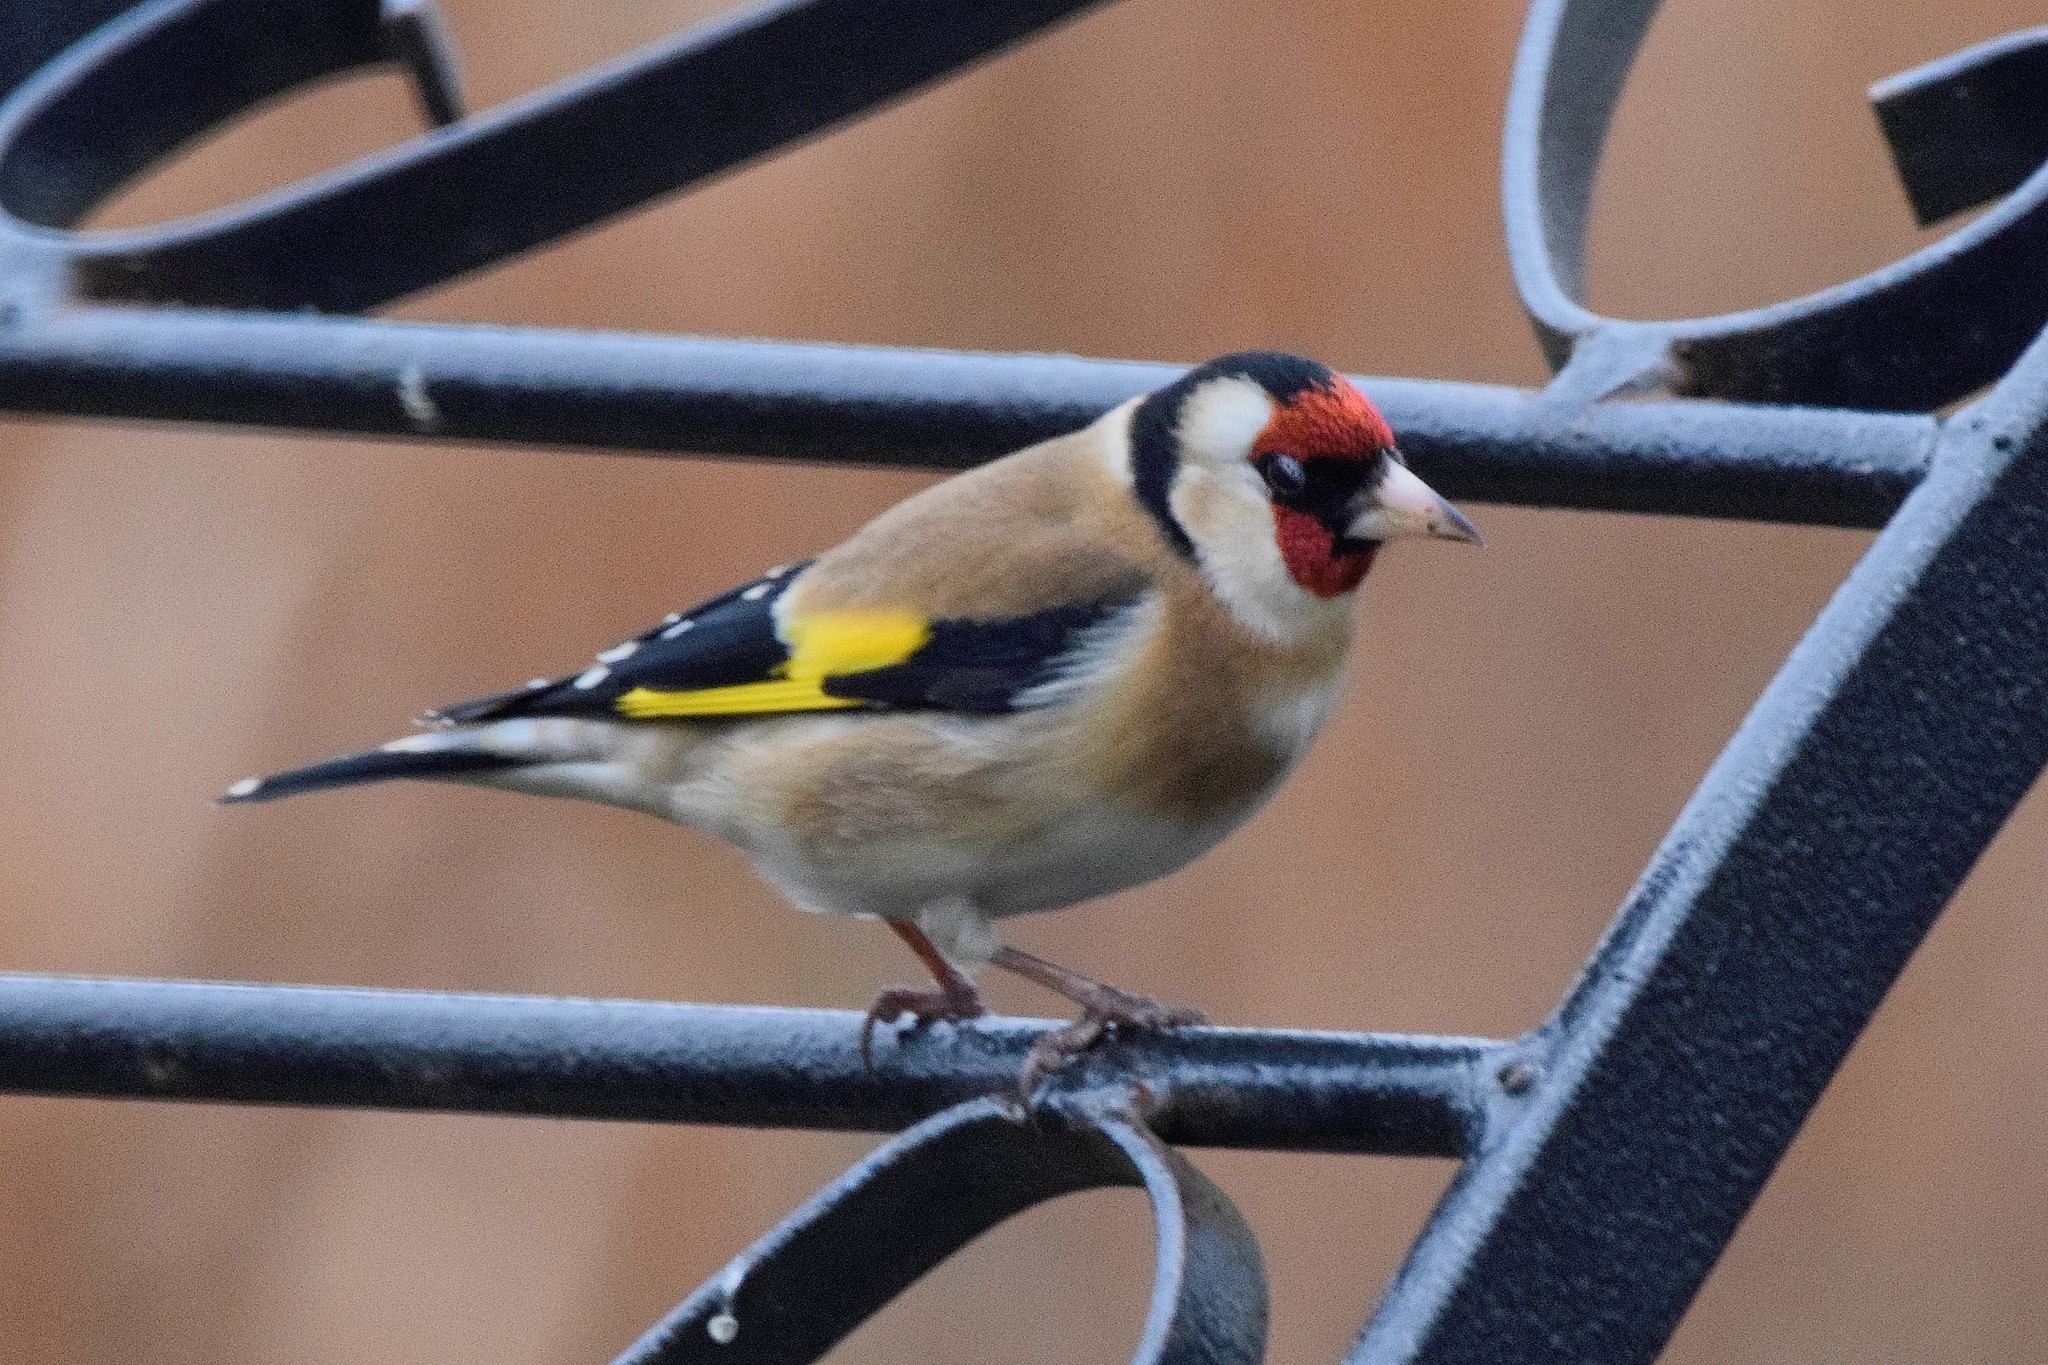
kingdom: Animalia
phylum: Chordata
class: Aves
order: Passeriformes
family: Fringillidae
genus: Carduelis
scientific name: Carduelis carduelis
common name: European goldfinch
